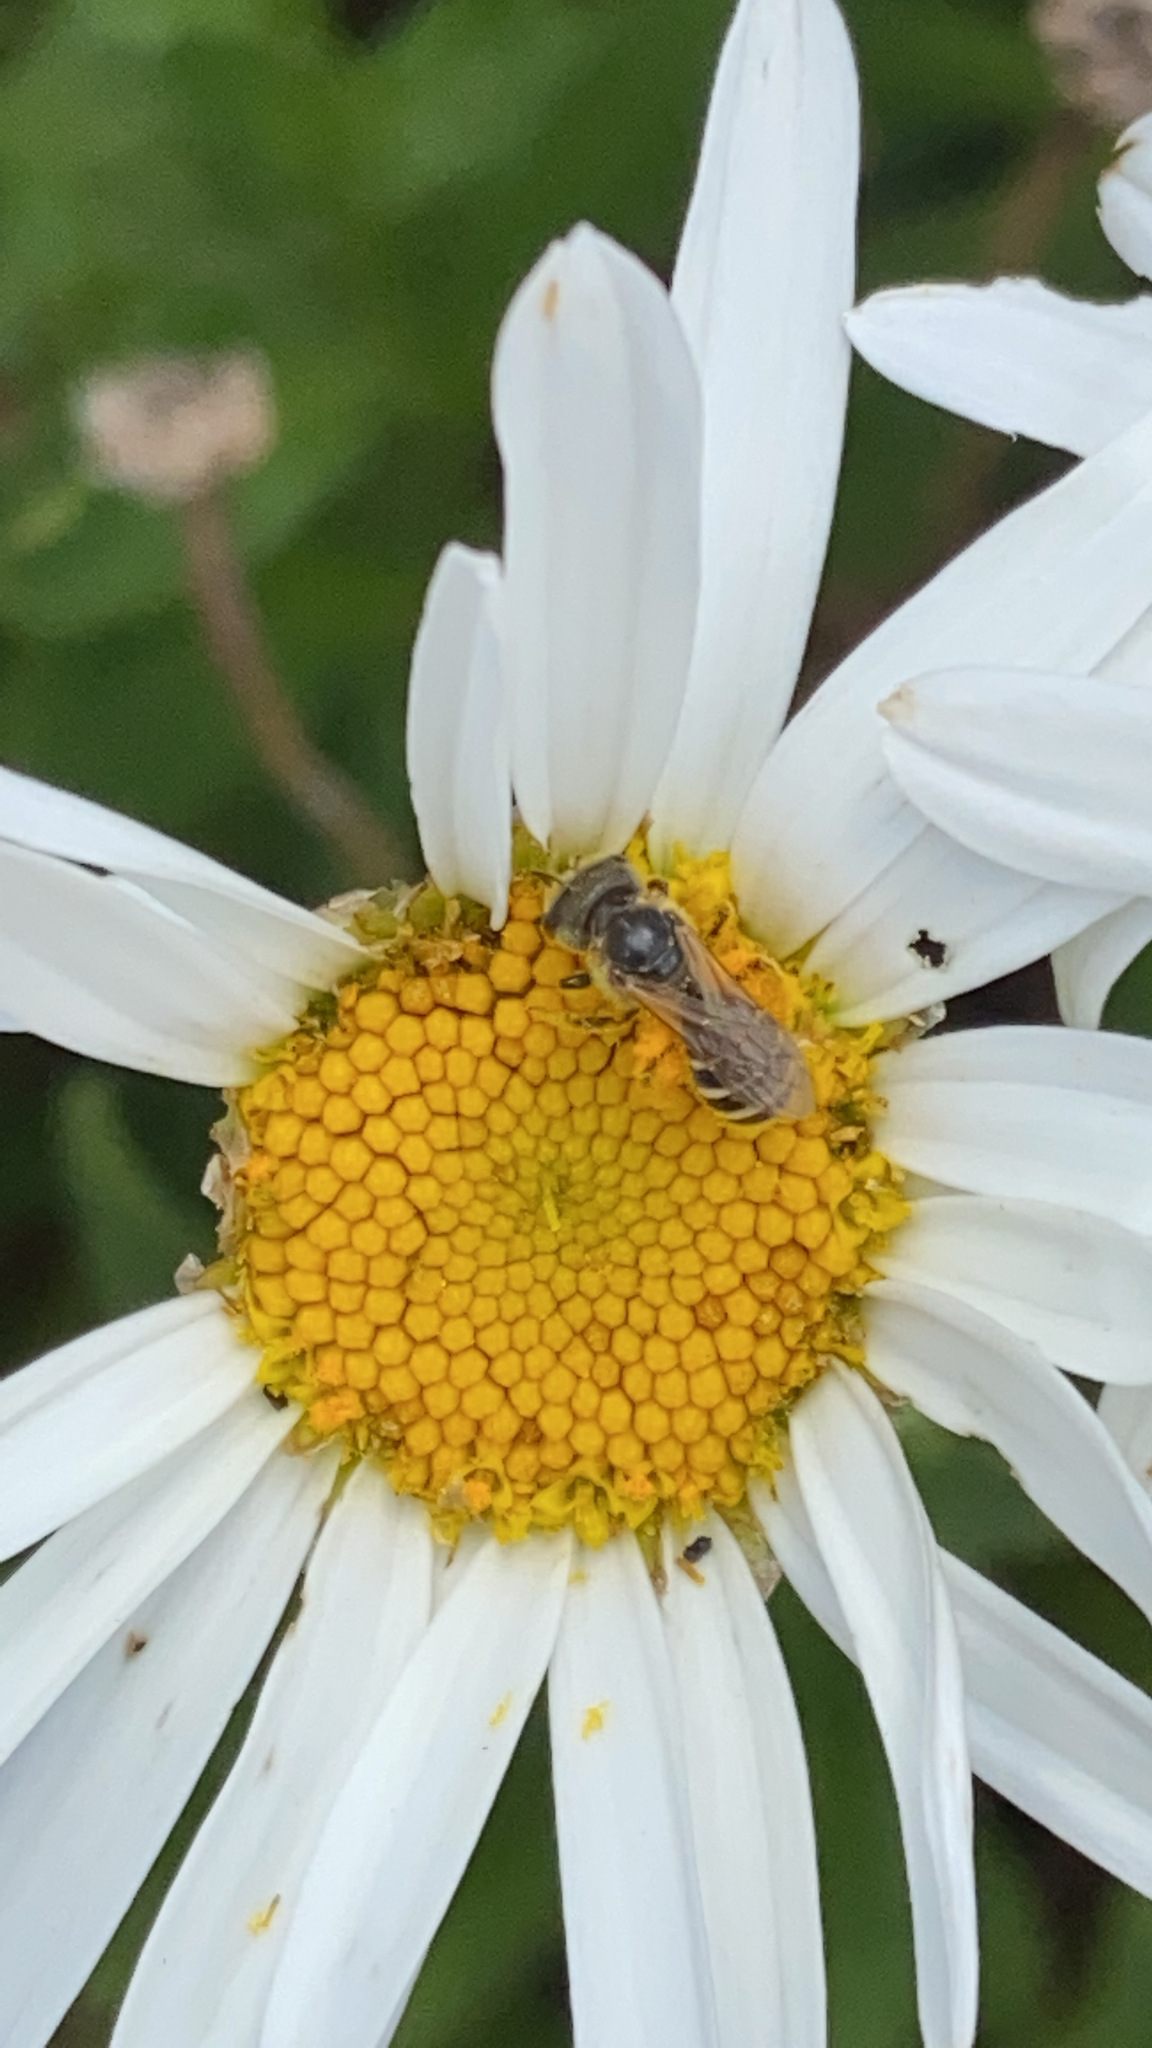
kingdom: Animalia
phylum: Arthropoda
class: Insecta
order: Hymenoptera
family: Halictidae
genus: Halictus
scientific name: Halictus ligatus
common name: Ligated furrow bee
